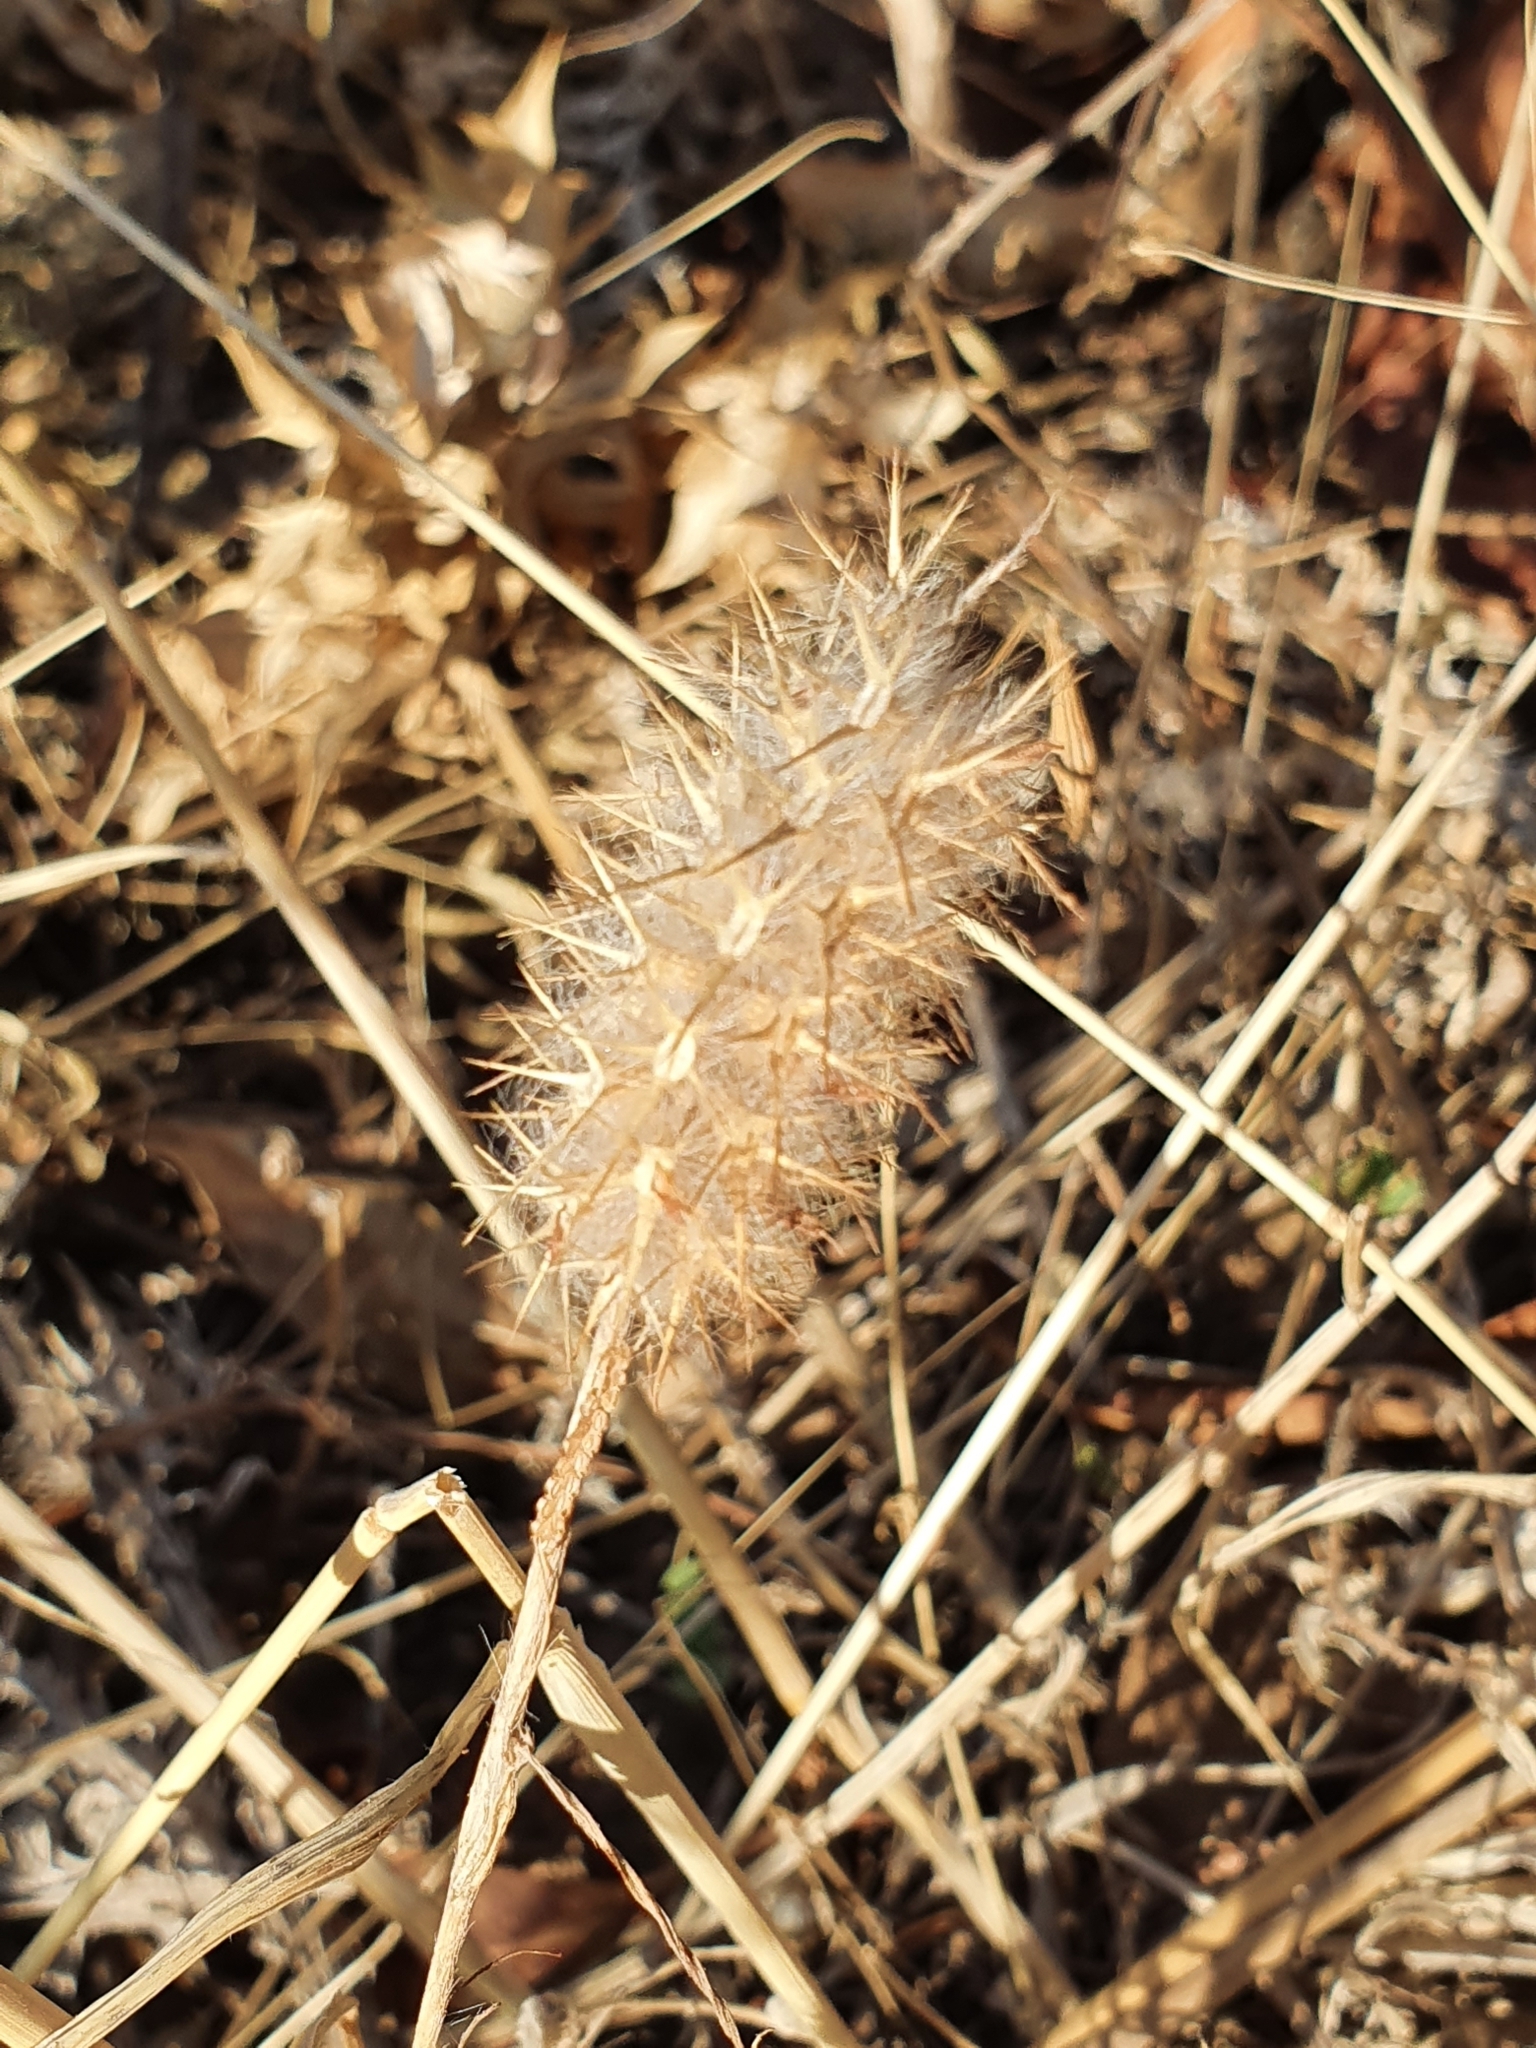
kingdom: Plantae
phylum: Tracheophyta
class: Magnoliopsida
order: Fabales
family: Fabaceae
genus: Trifolium
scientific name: Trifolium angustifolium
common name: Narrow clover
